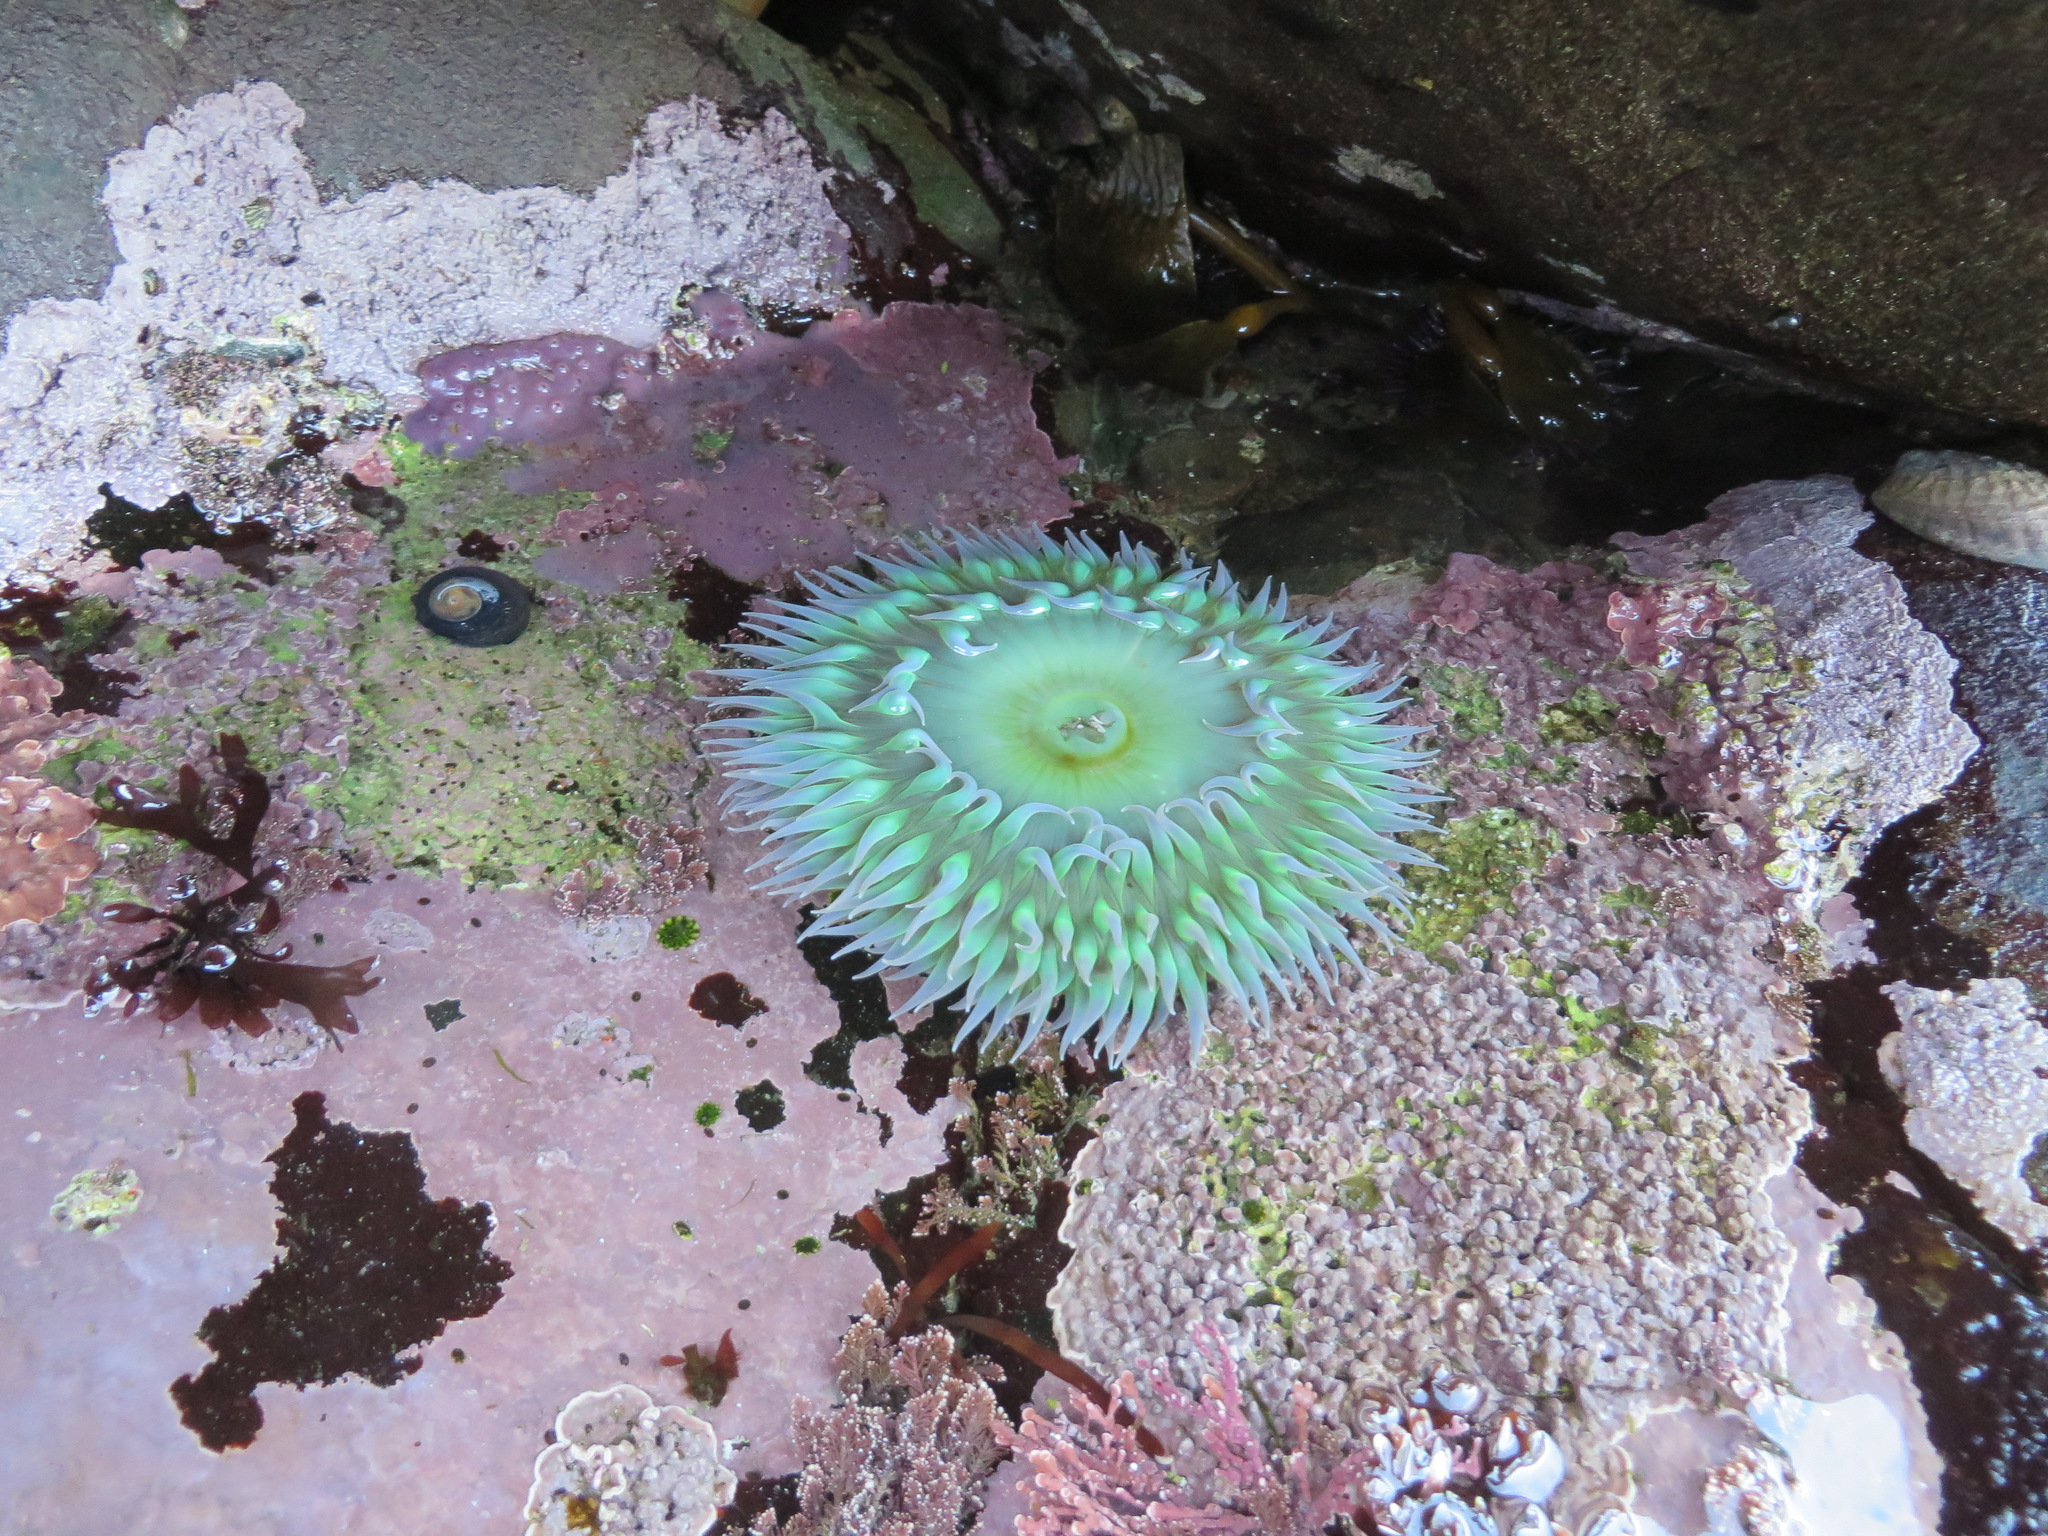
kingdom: Animalia
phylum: Cnidaria
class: Anthozoa
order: Actiniaria
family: Actiniidae
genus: Anthopleura
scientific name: Anthopleura xanthogrammica
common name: Giant green anemone
